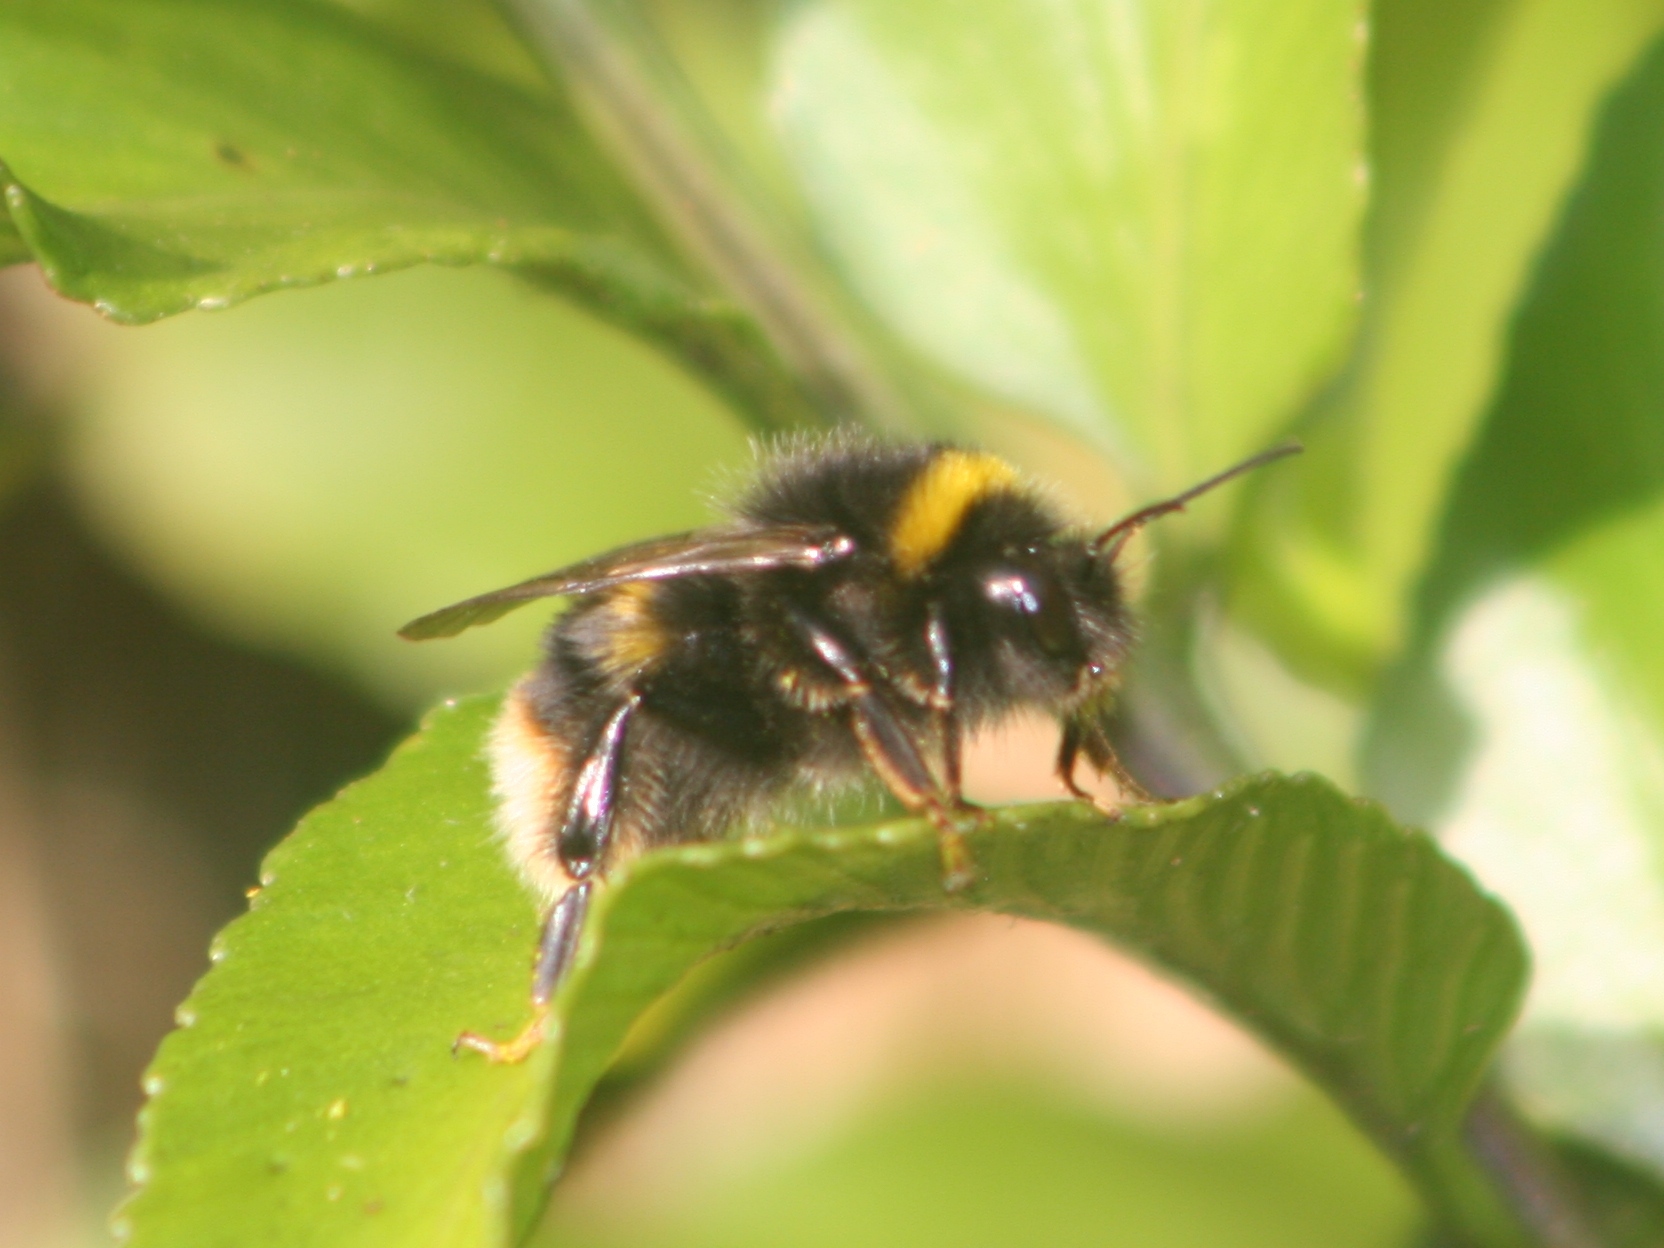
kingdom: Animalia
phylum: Arthropoda
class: Insecta
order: Hymenoptera
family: Apidae
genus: Bombus
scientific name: Bombus terrestris
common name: Buff-tailed bumblebee
